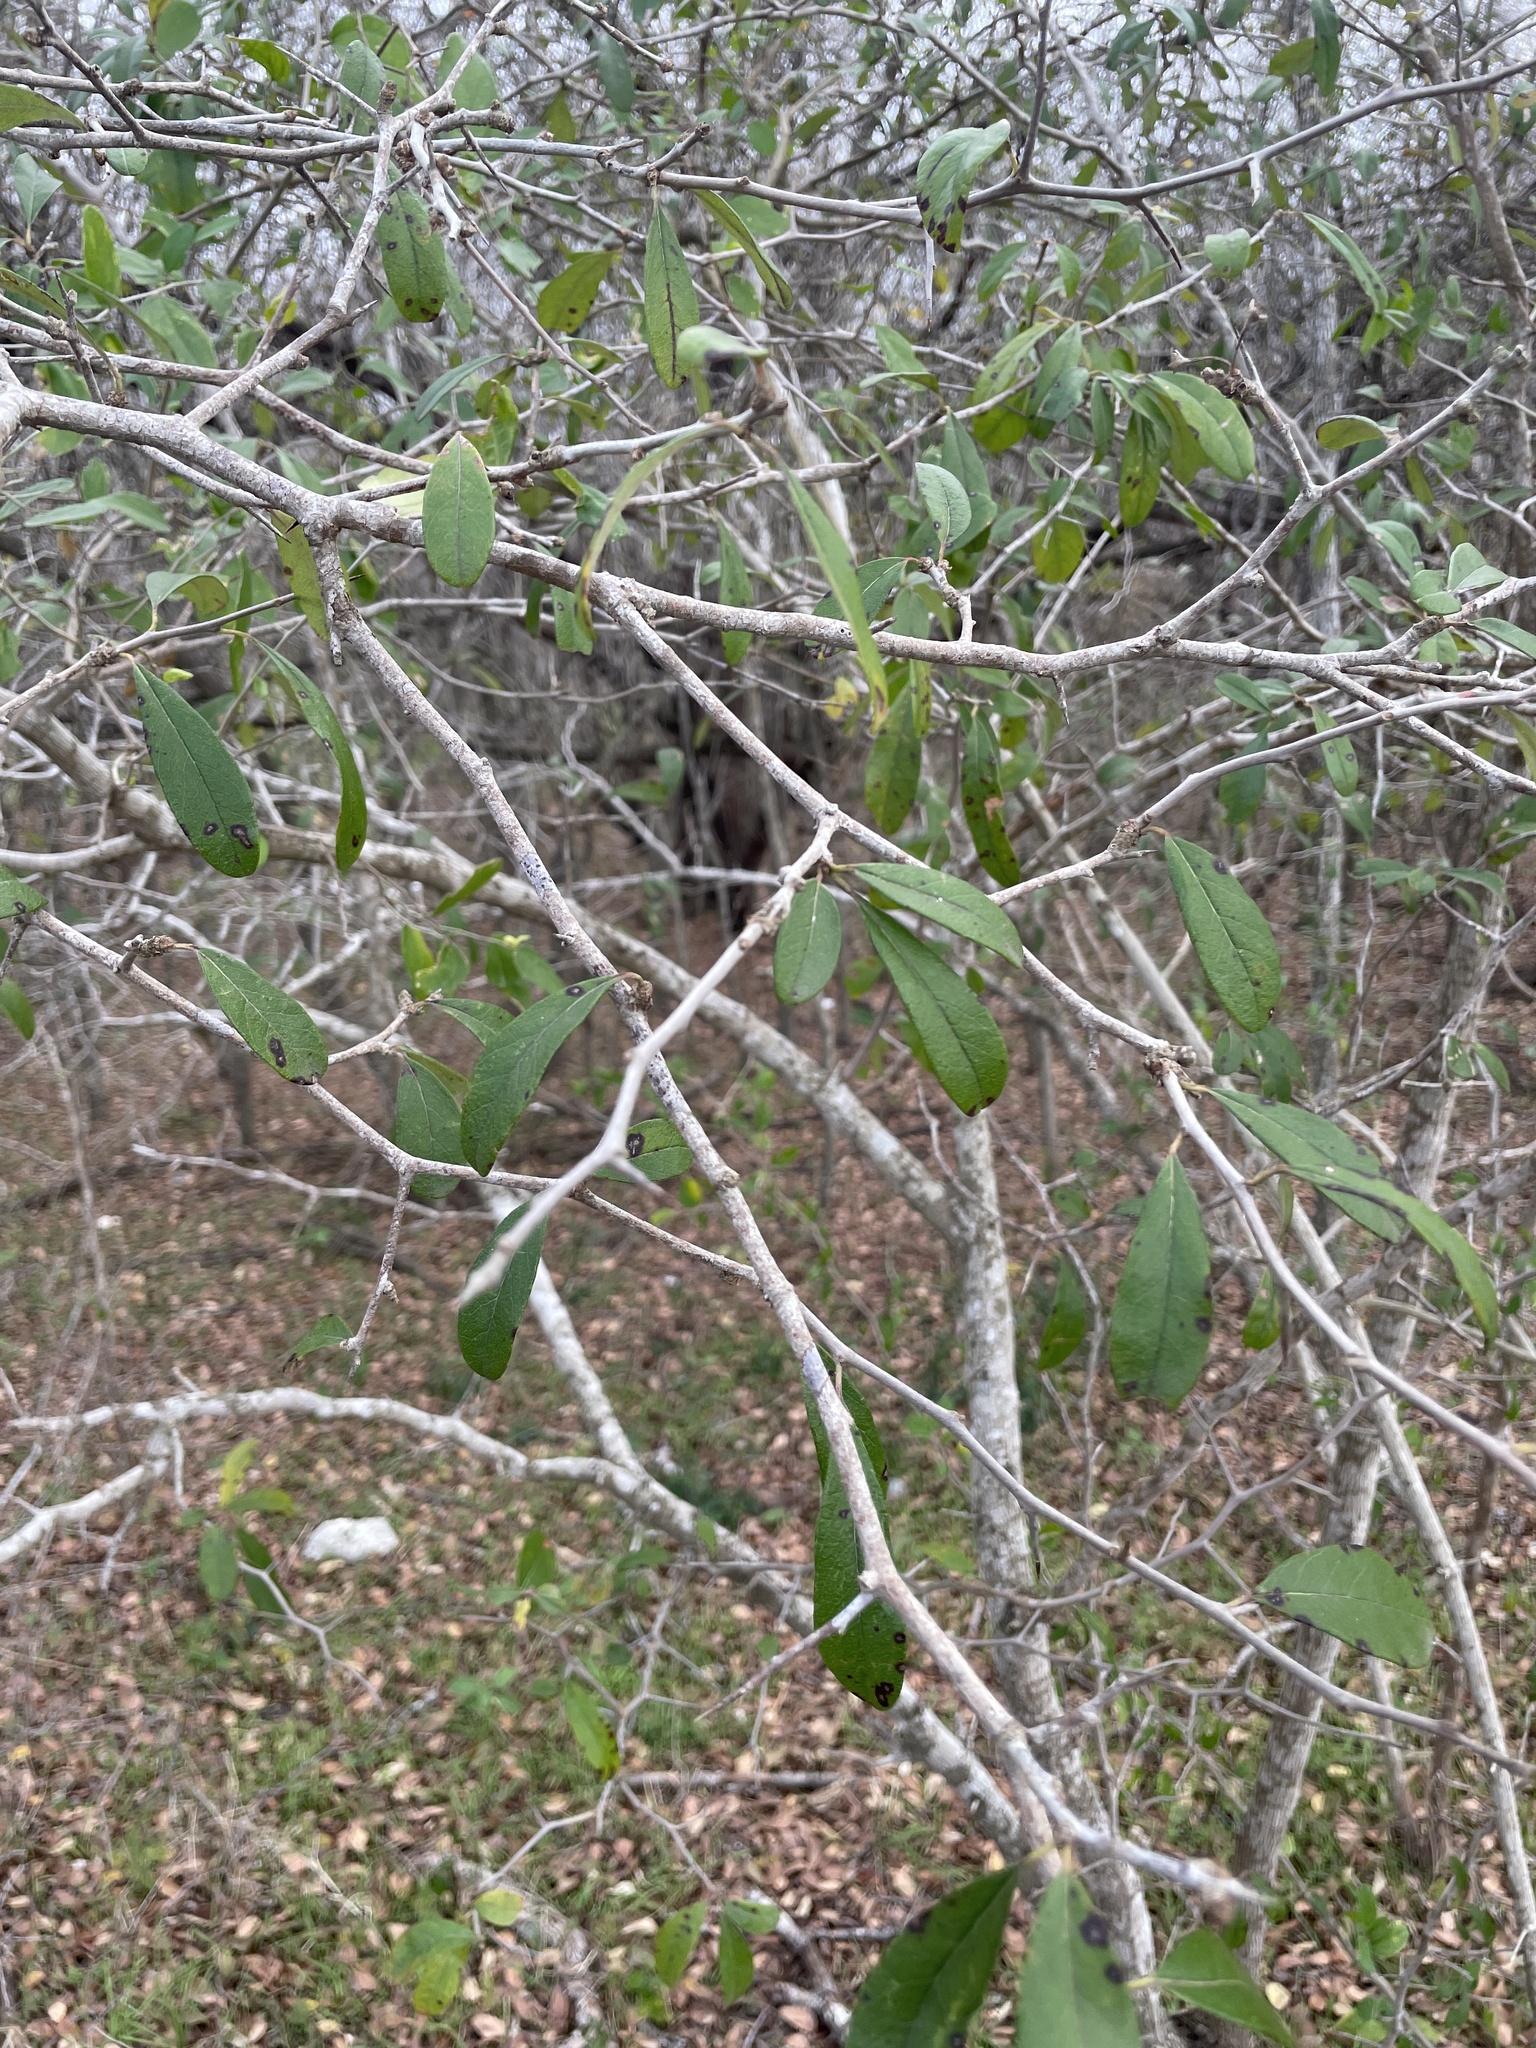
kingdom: Plantae
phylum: Tracheophyta
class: Magnoliopsida
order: Ericales
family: Sapotaceae
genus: Sideroxylon
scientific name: Sideroxylon lanuginosum
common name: Chittamwood
